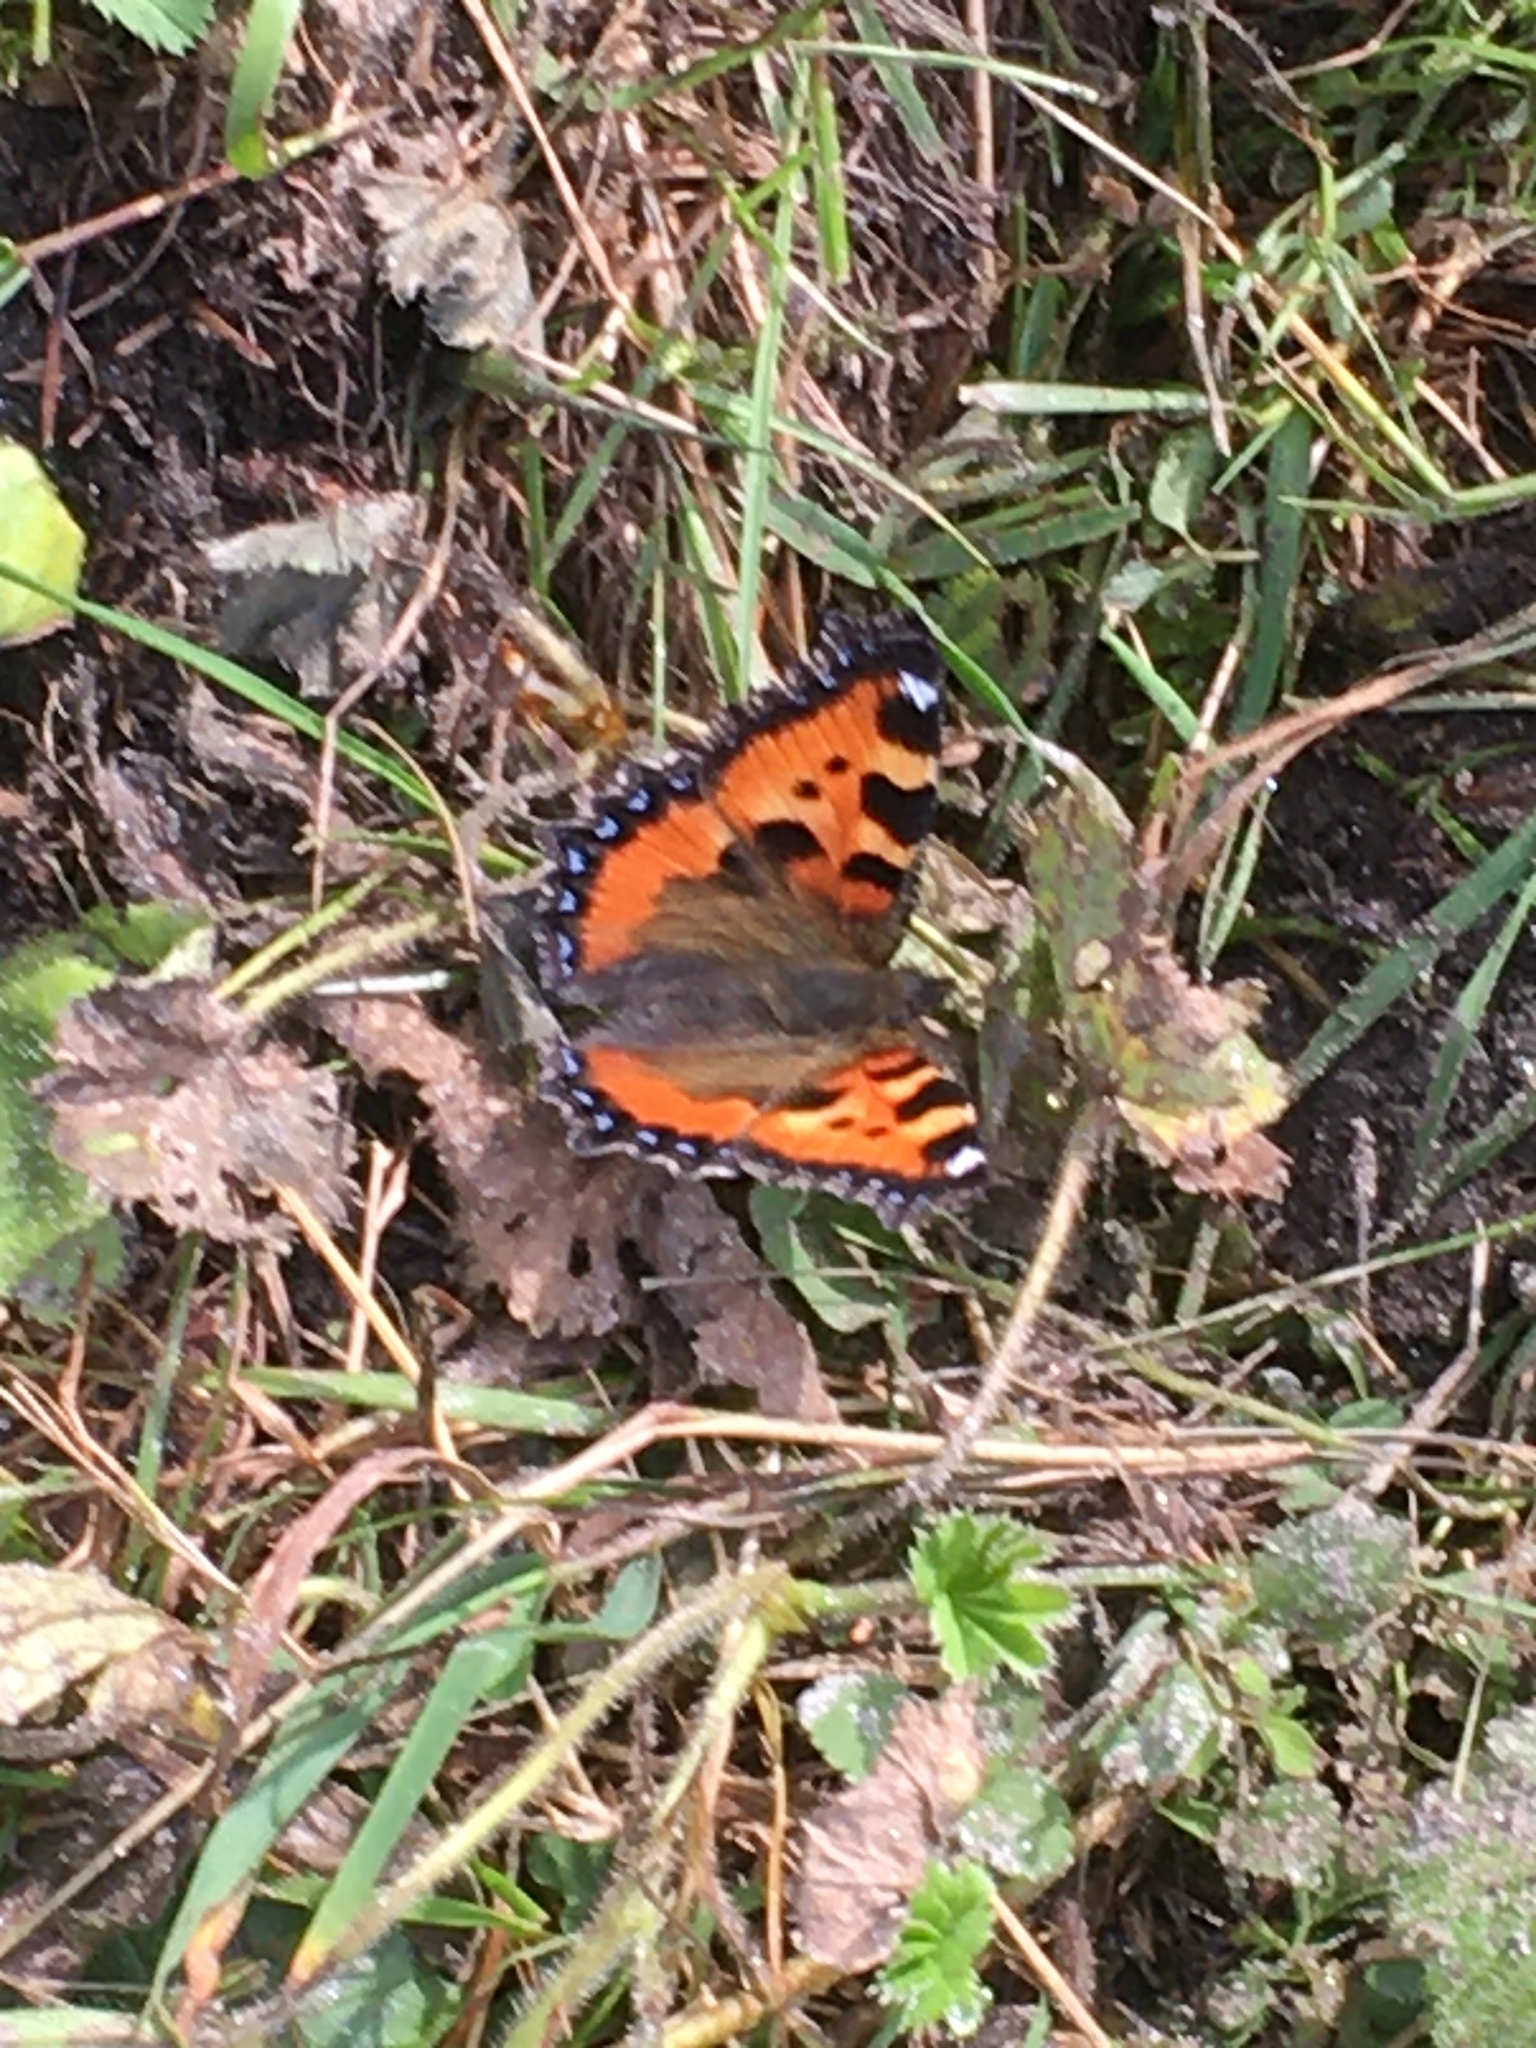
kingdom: Animalia
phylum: Arthropoda
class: Insecta
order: Lepidoptera
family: Nymphalidae
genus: Aglais
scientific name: Aglais urticae
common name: Small tortoiseshell
